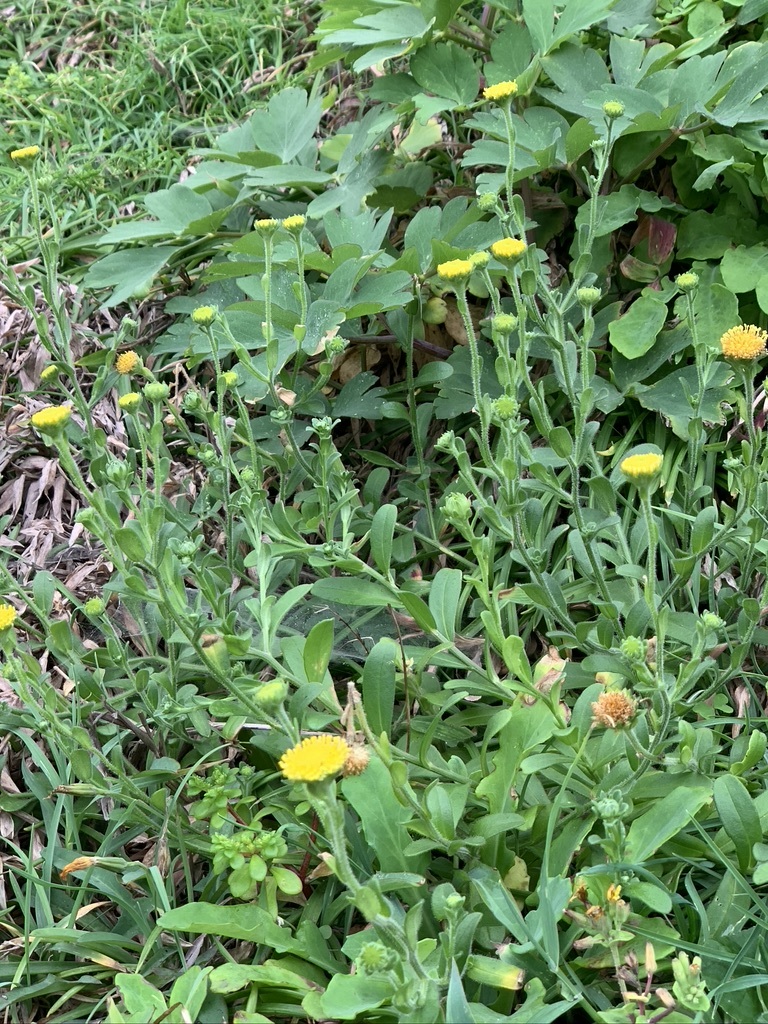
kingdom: Plantae
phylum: Tracheophyta
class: Magnoliopsida
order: Asterales
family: Asteraceae
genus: Heteropappus
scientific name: Heteropappus oldhamii
